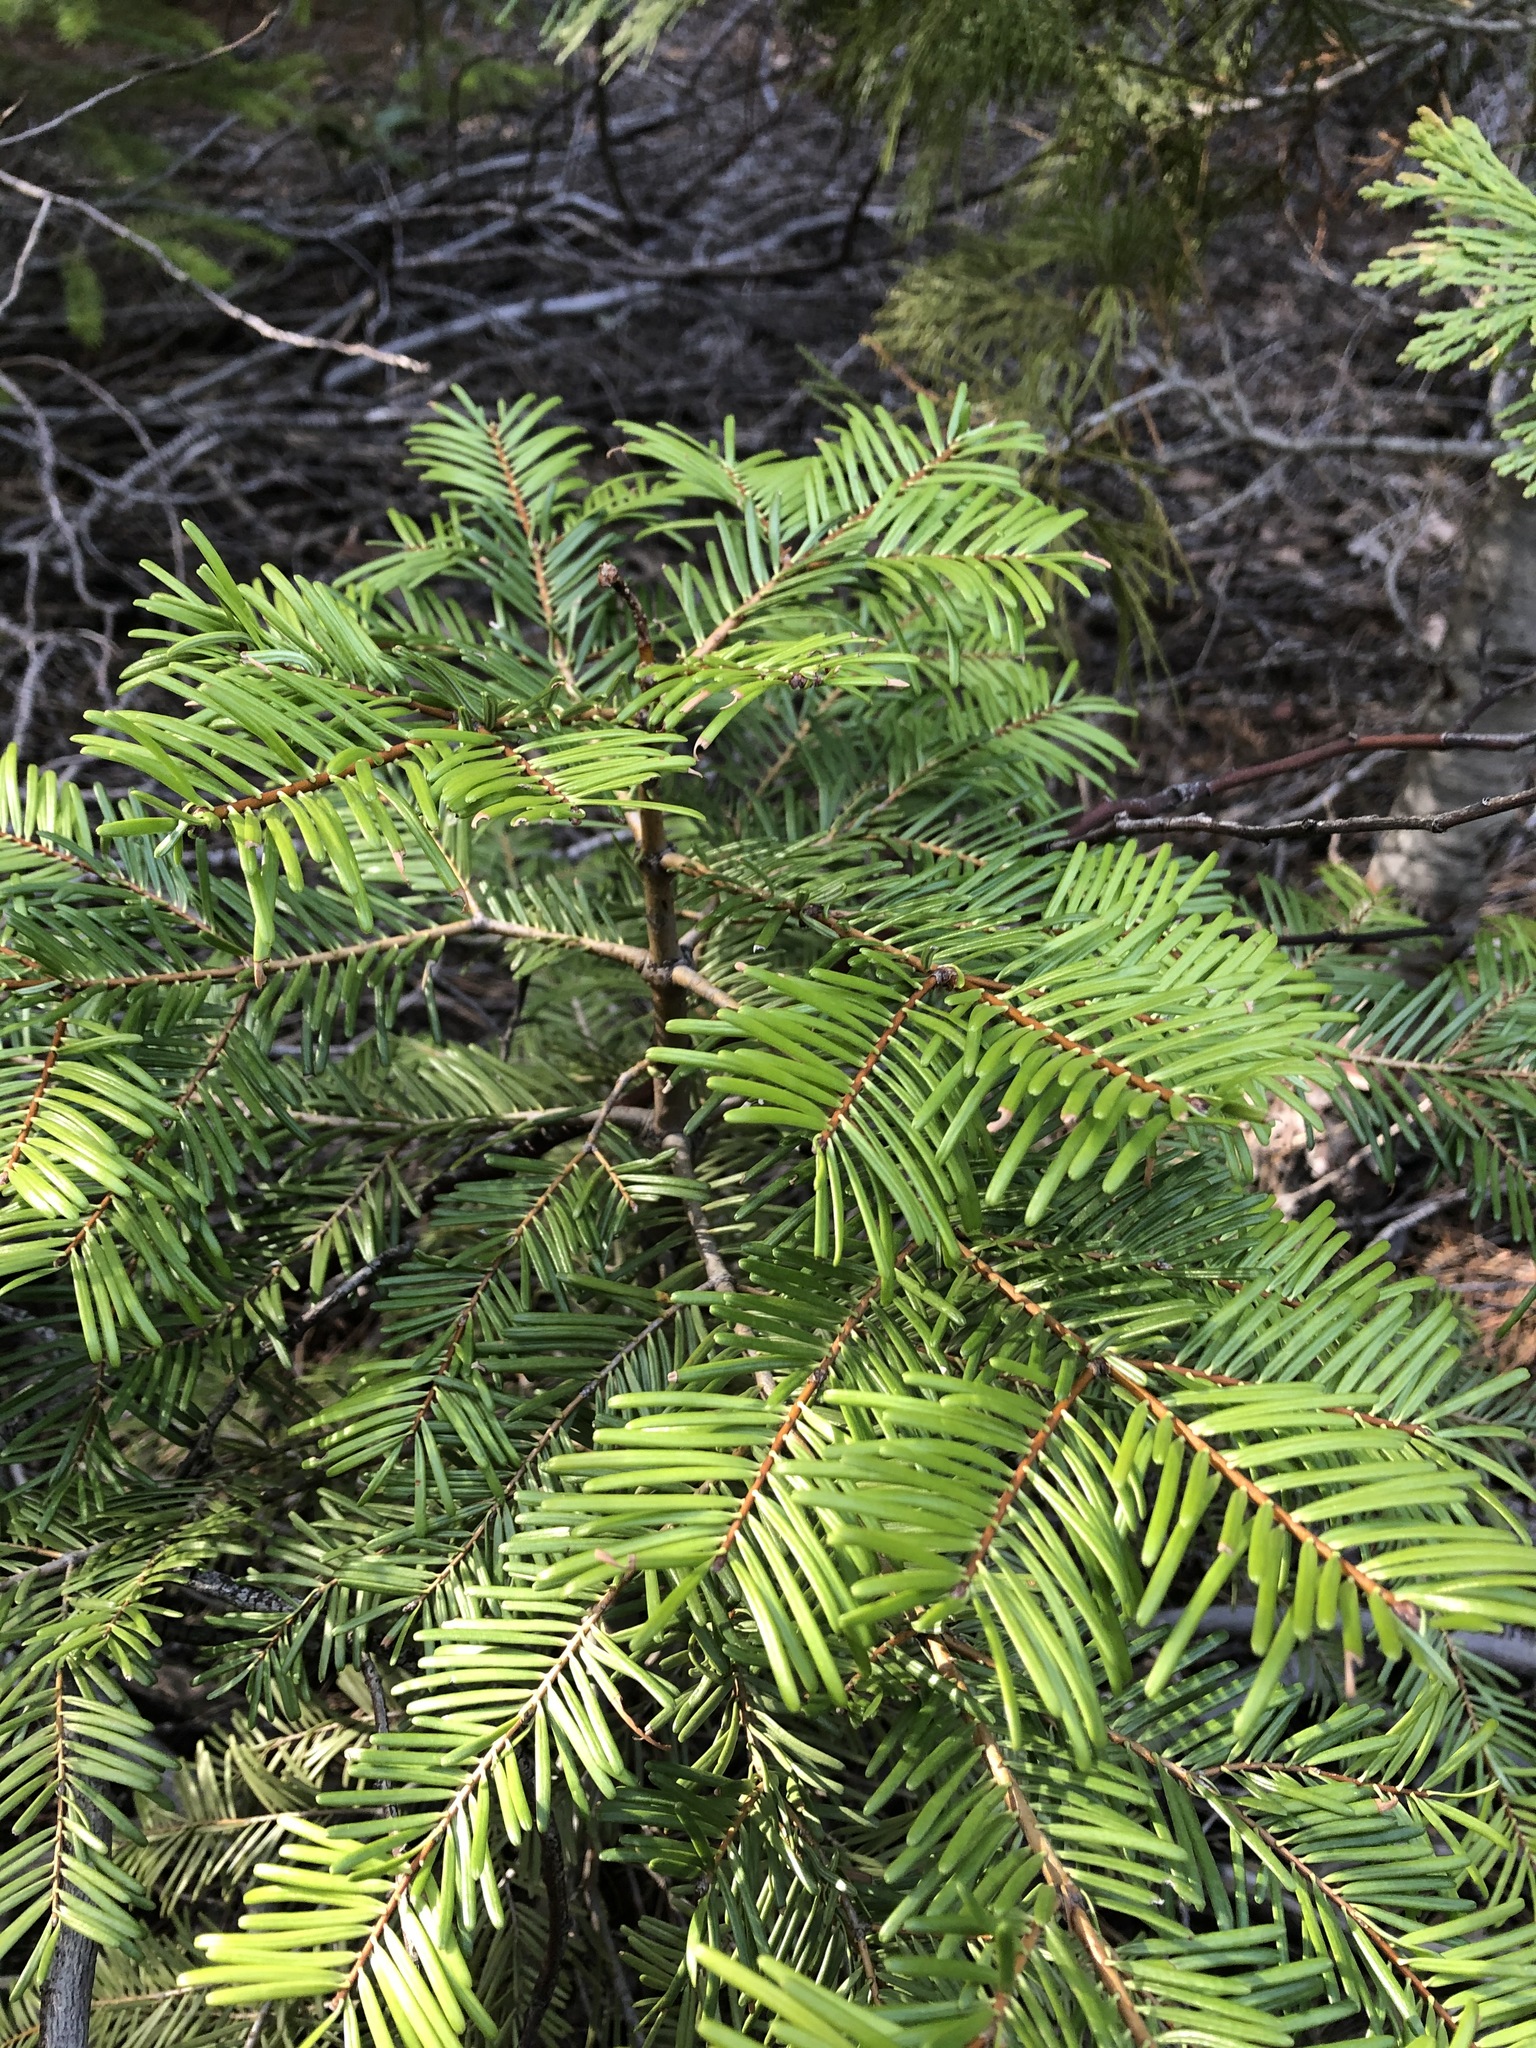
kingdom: Plantae
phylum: Tracheophyta
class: Pinopsida
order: Pinales
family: Pinaceae
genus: Abies
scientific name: Abies concolor
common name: Colorado fir
